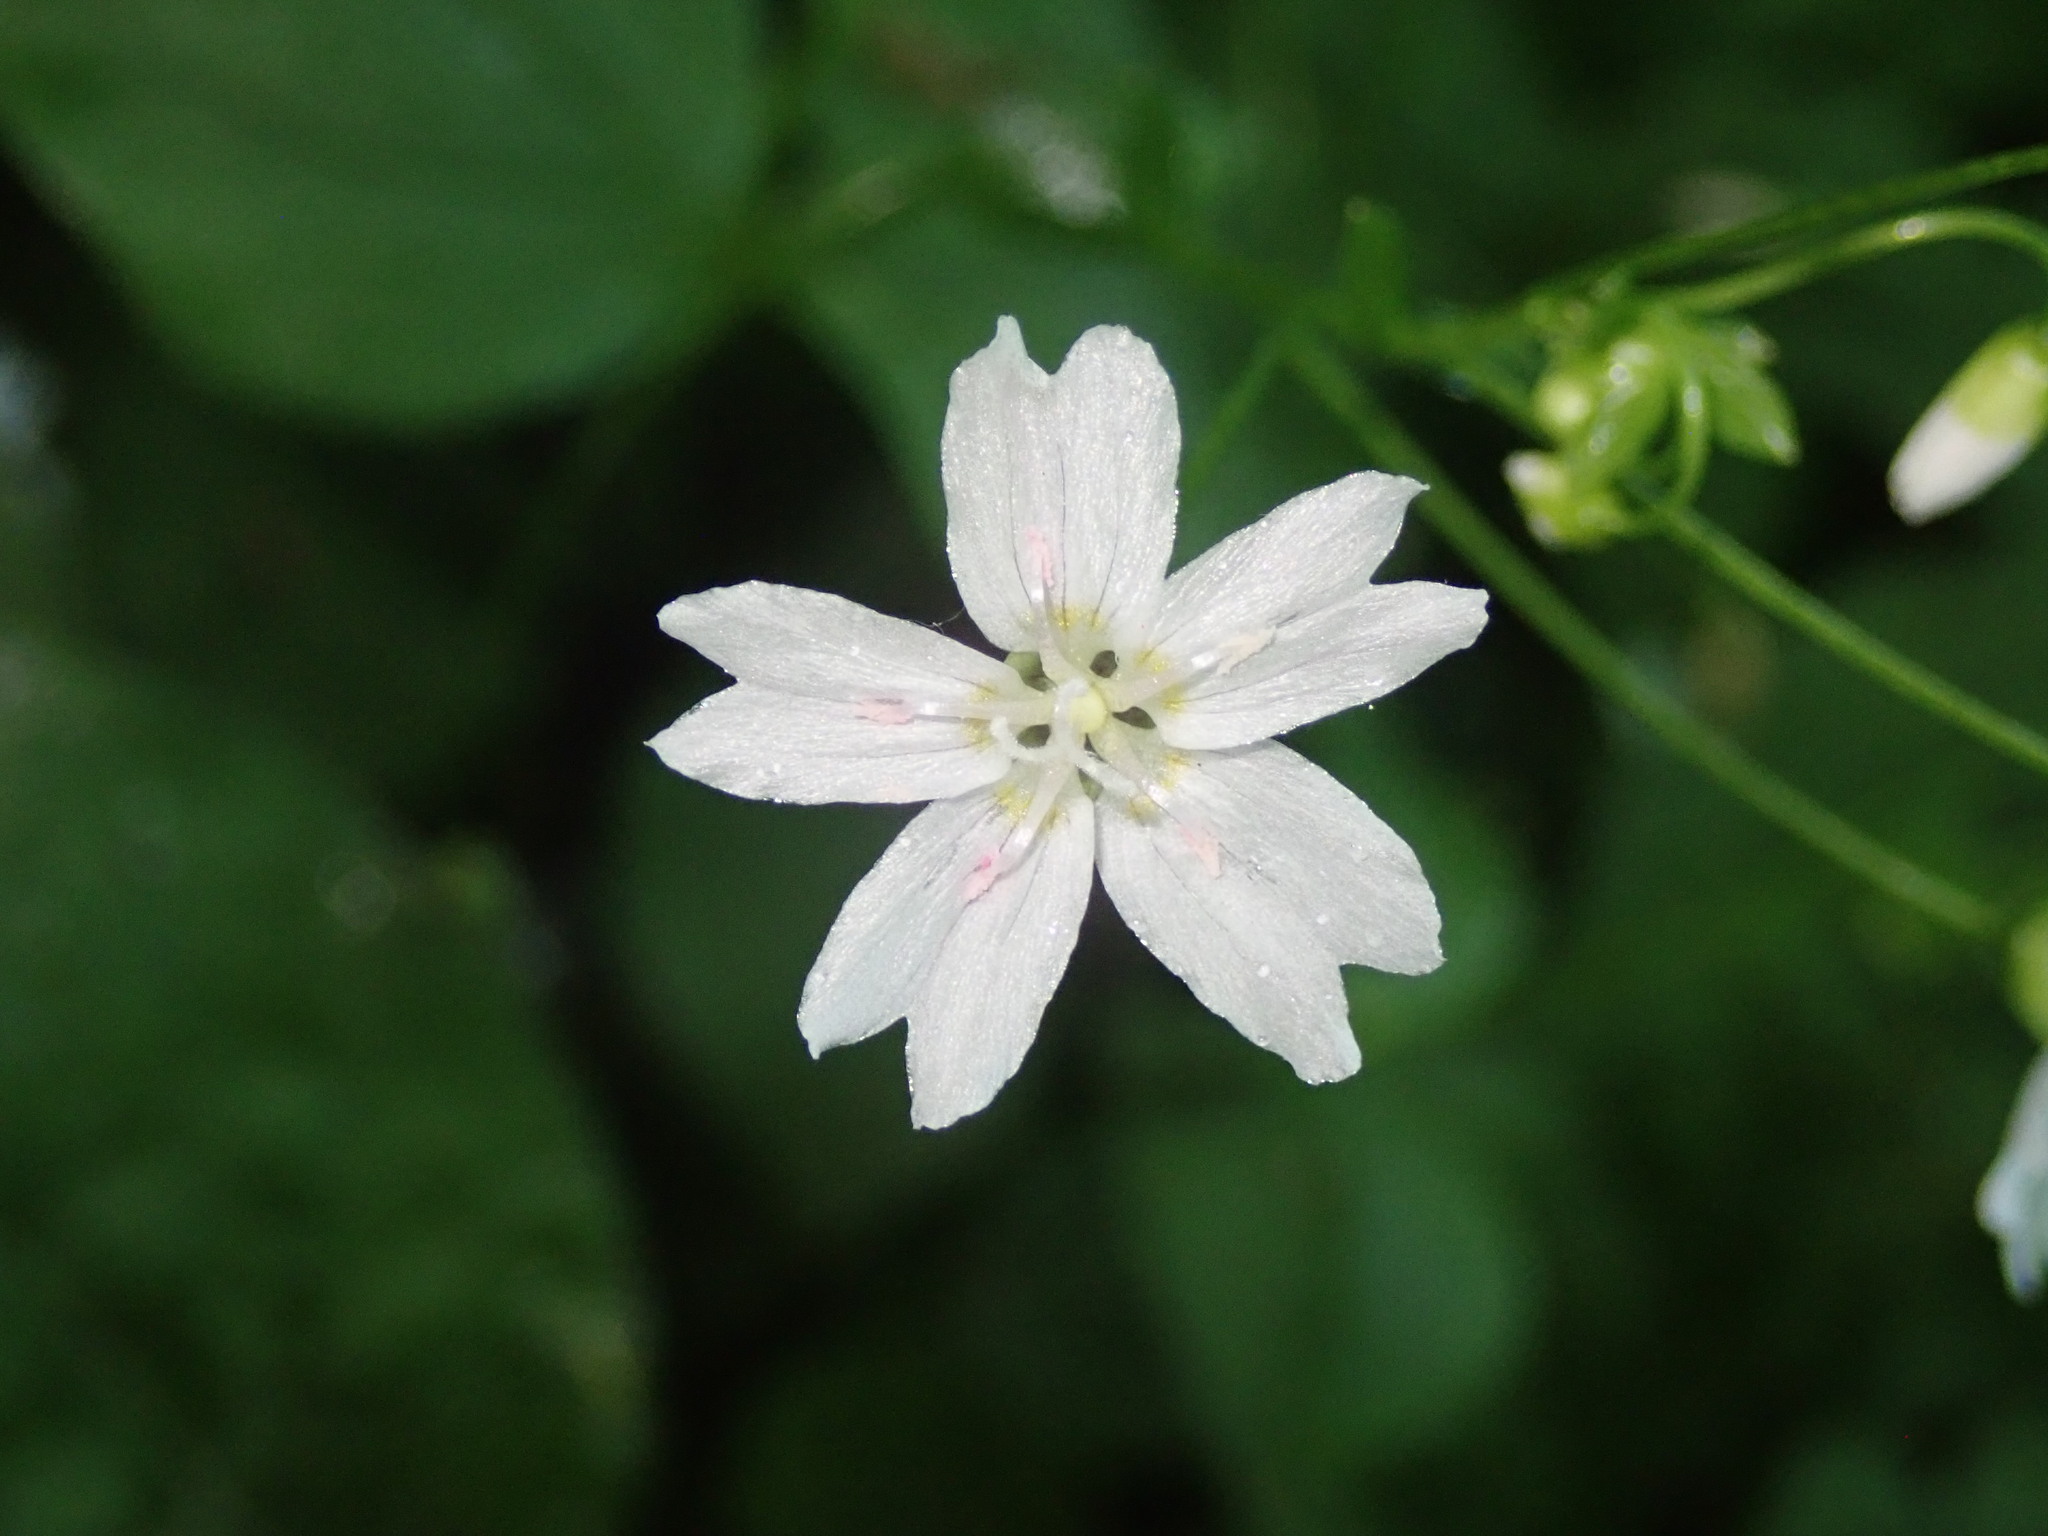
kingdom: Plantae
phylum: Tracheophyta
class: Magnoliopsida
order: Caryophyllales
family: Montiaceae
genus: Claytonia
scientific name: Claytonia sibirica
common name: Pink purslane
